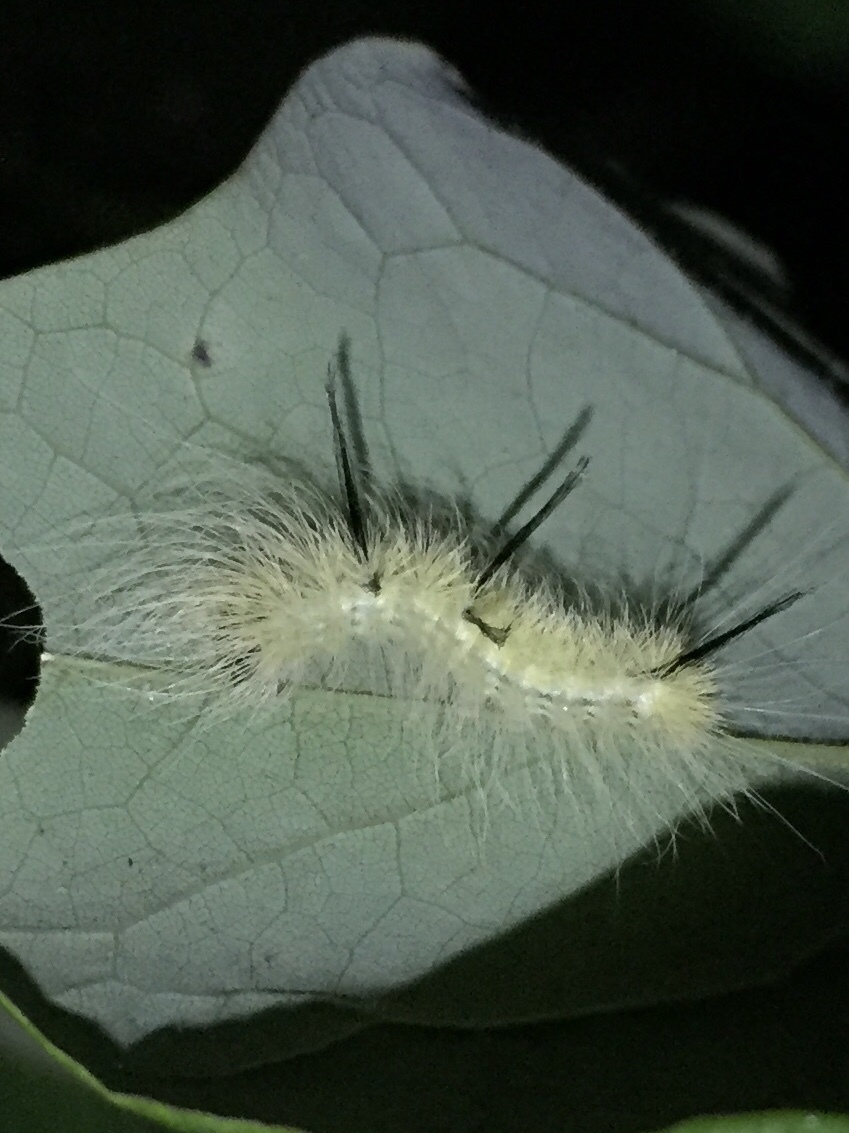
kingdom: Animalia
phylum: Arthropoda
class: Insecta
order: Lepidoptera
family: Noctuidae
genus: Acronicta
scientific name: Acronicta americana
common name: American dagger
